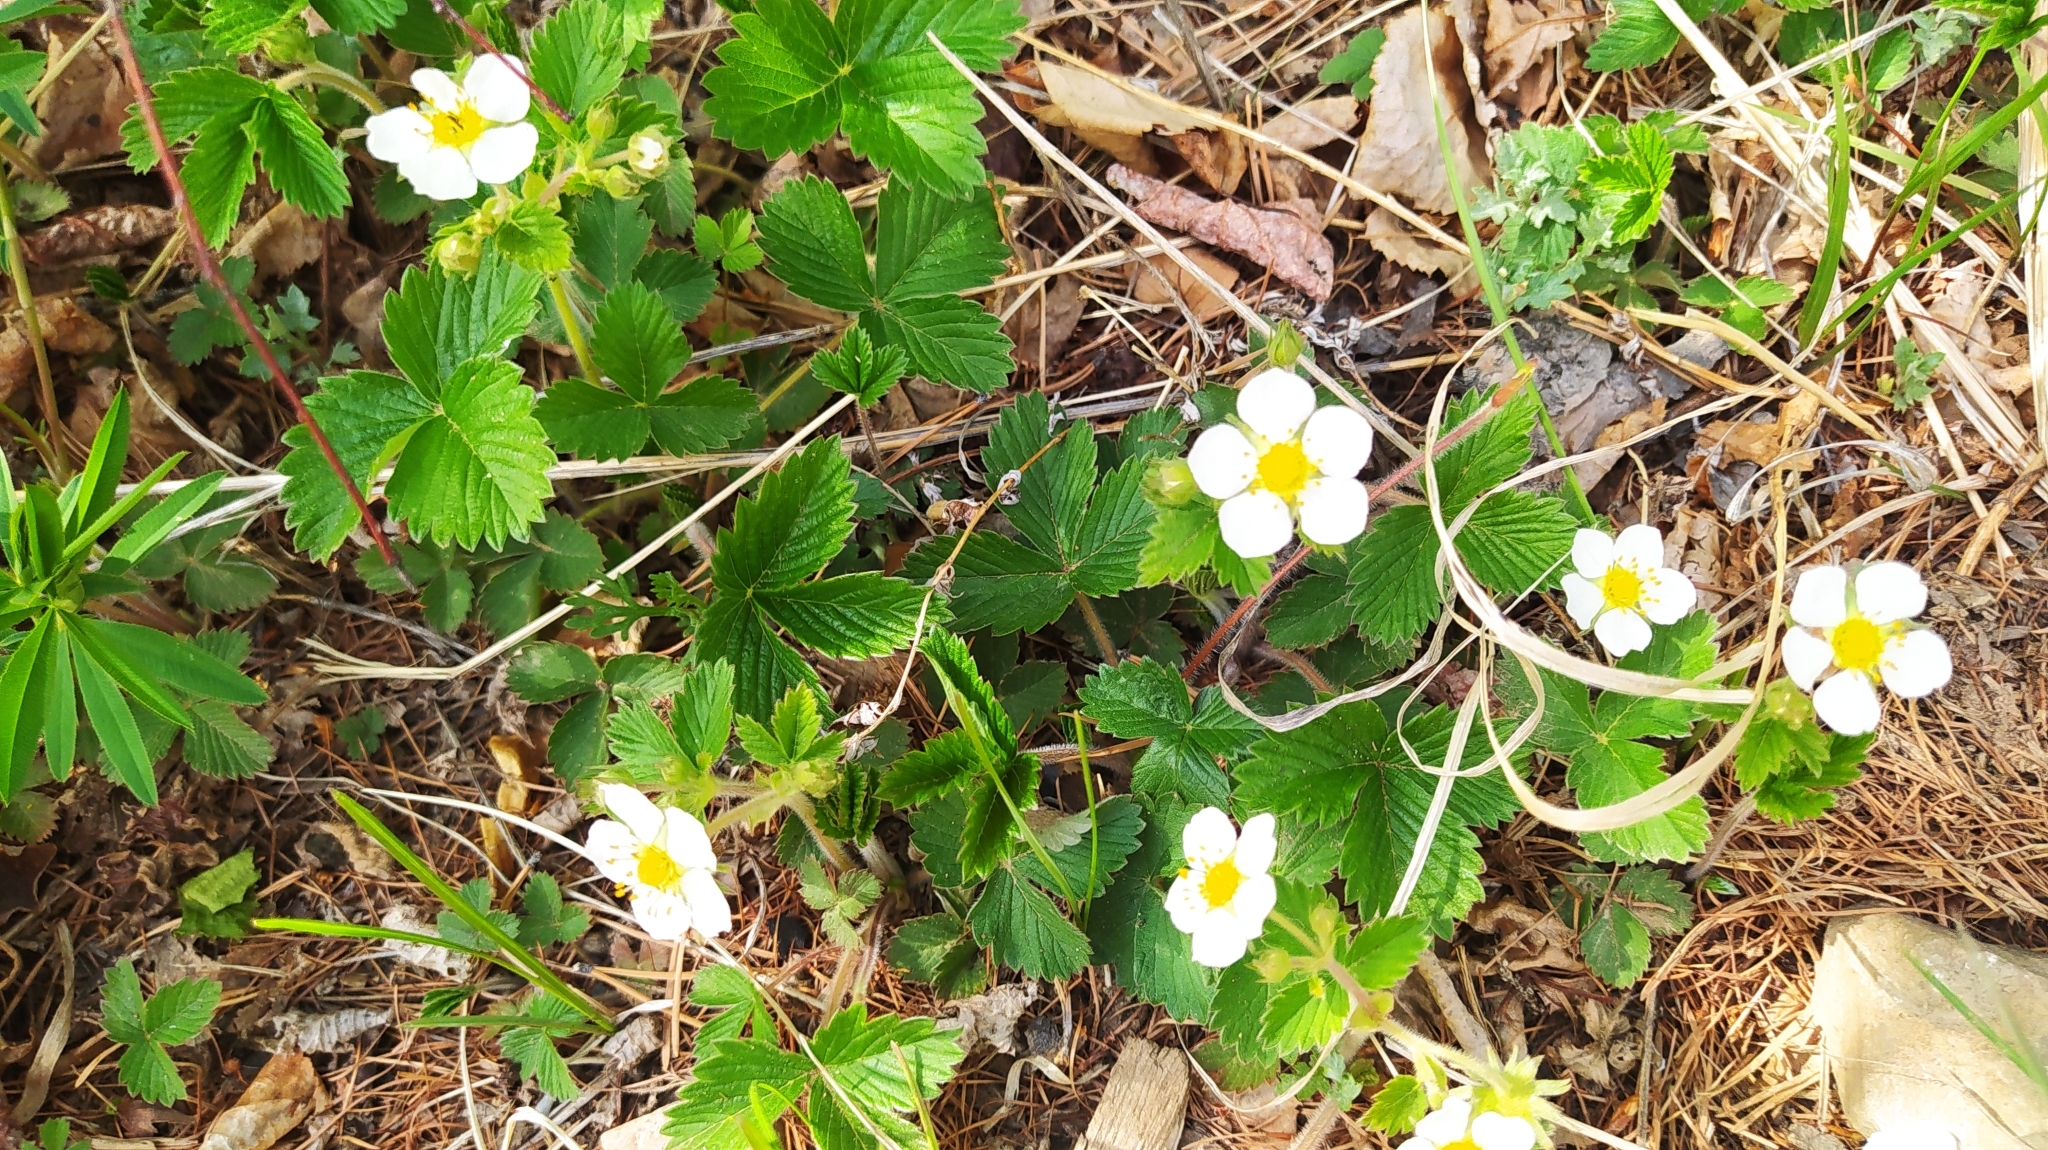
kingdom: Plantae
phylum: Tracheophyta
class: Magnoliopsida
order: Rosales
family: Rosaceae
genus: Fragaria
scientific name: Fragaria orientalis
